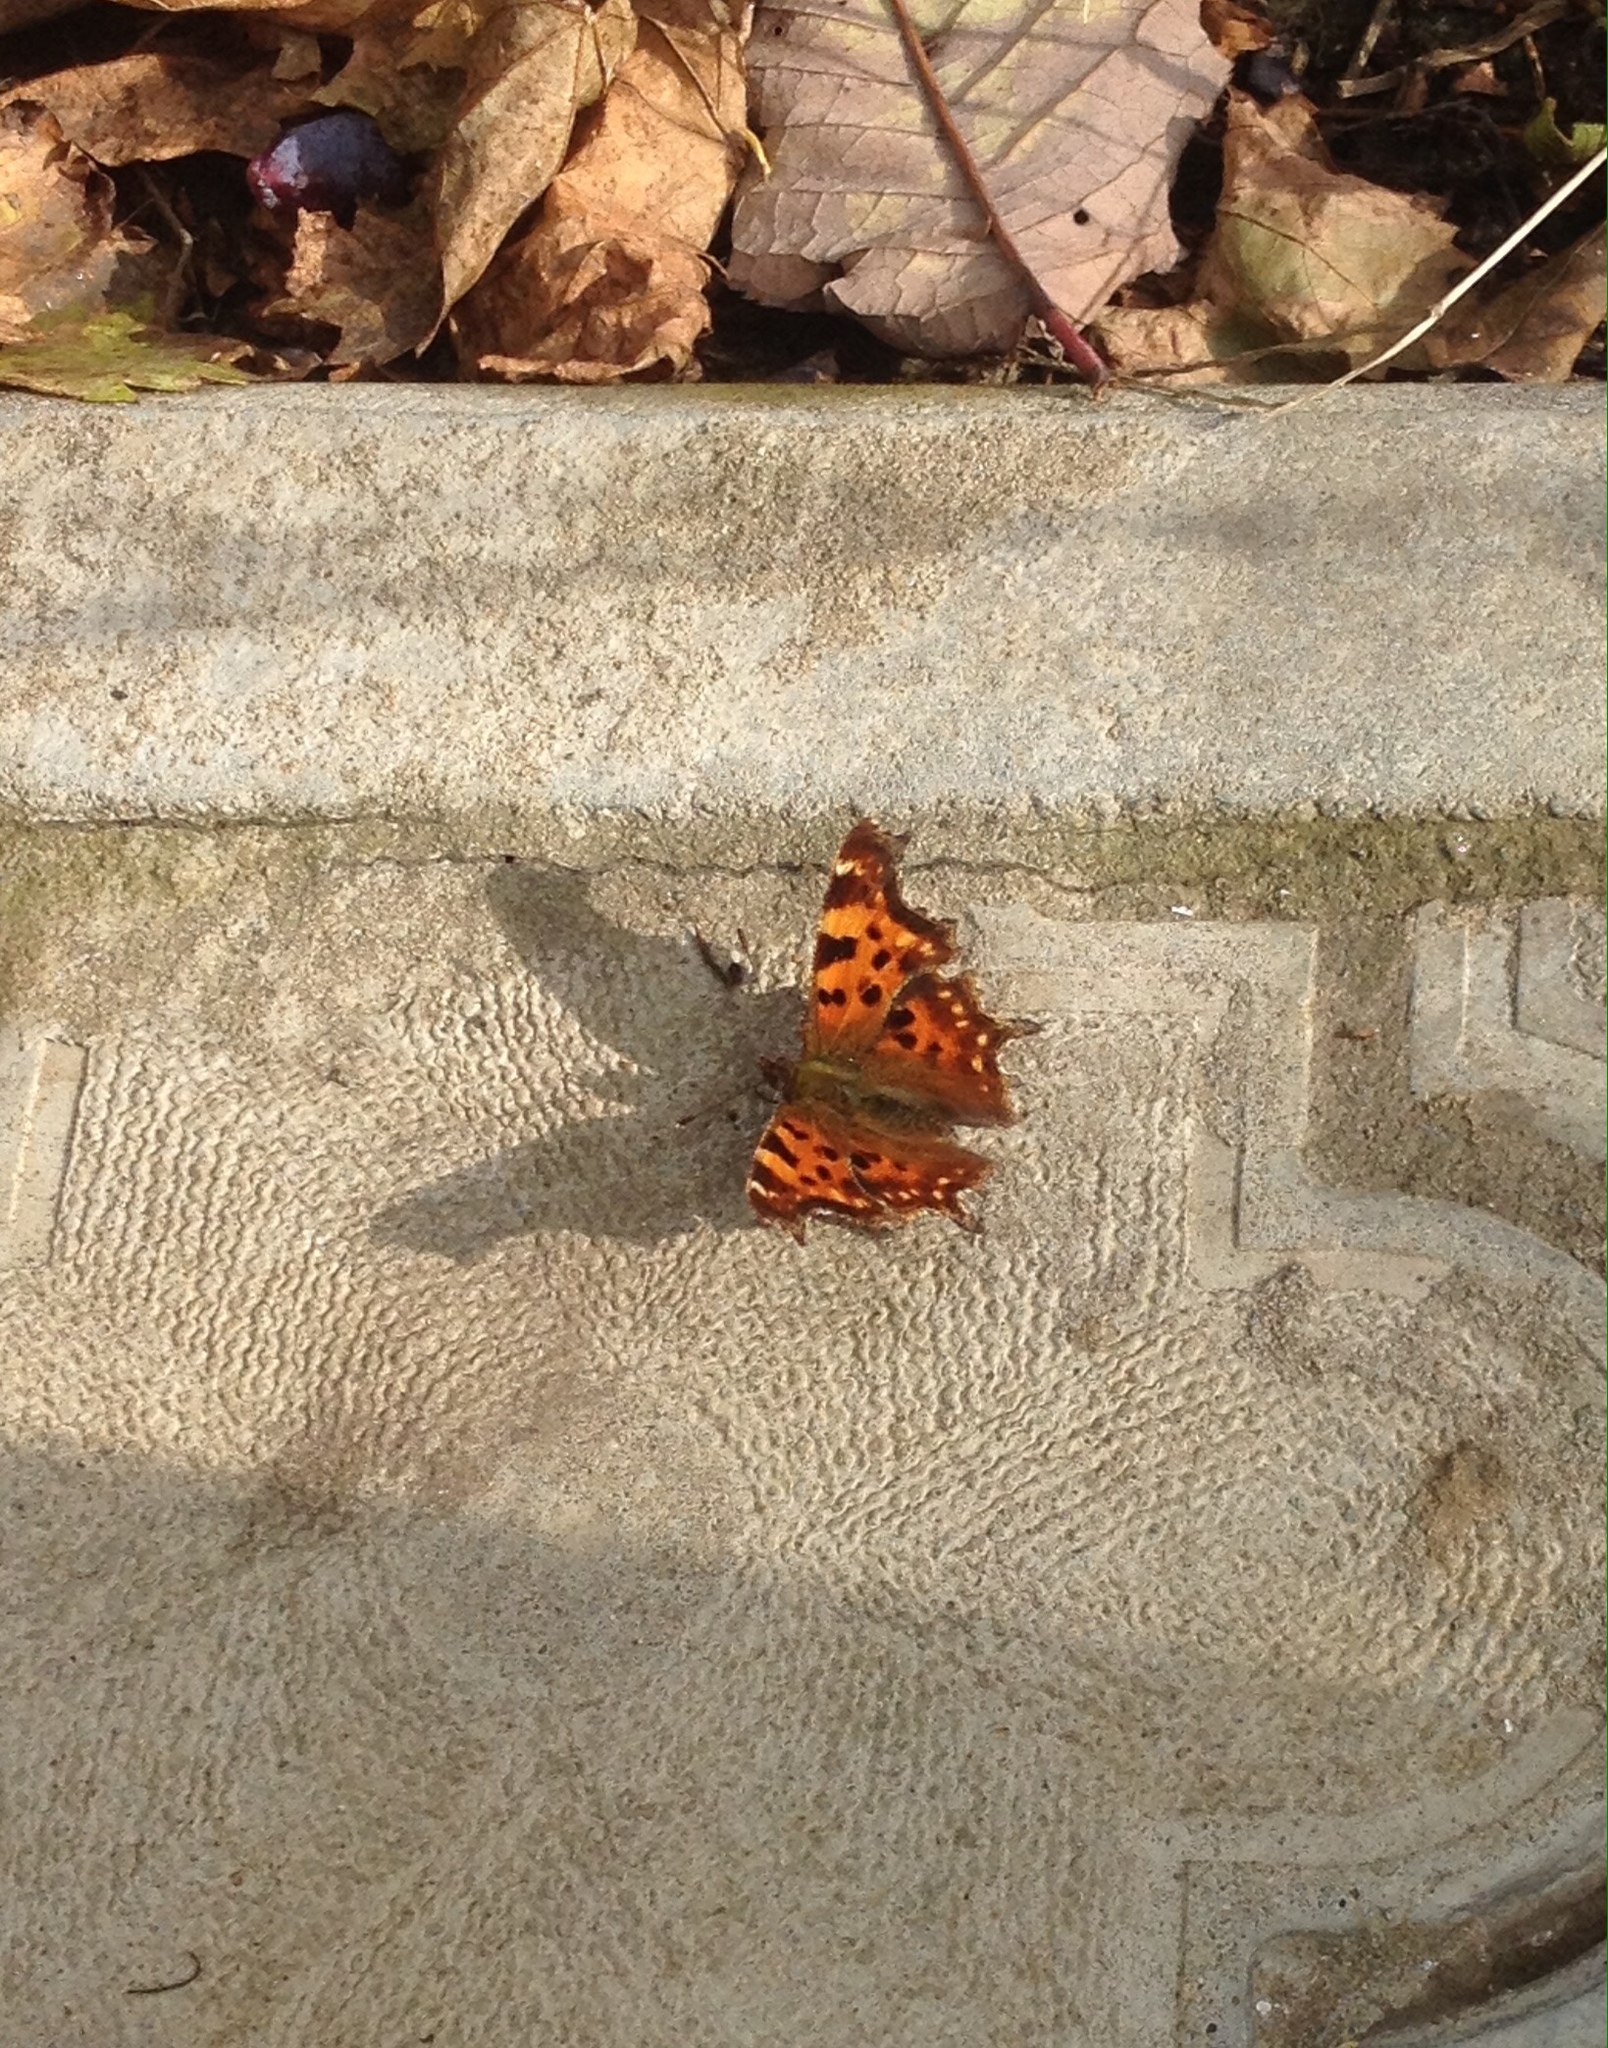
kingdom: Animalia
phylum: Arthropoda
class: Insecta
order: Lepidoptera
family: Nymphalidae
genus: Polygonia
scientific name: Polygonia c-album
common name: Comma
